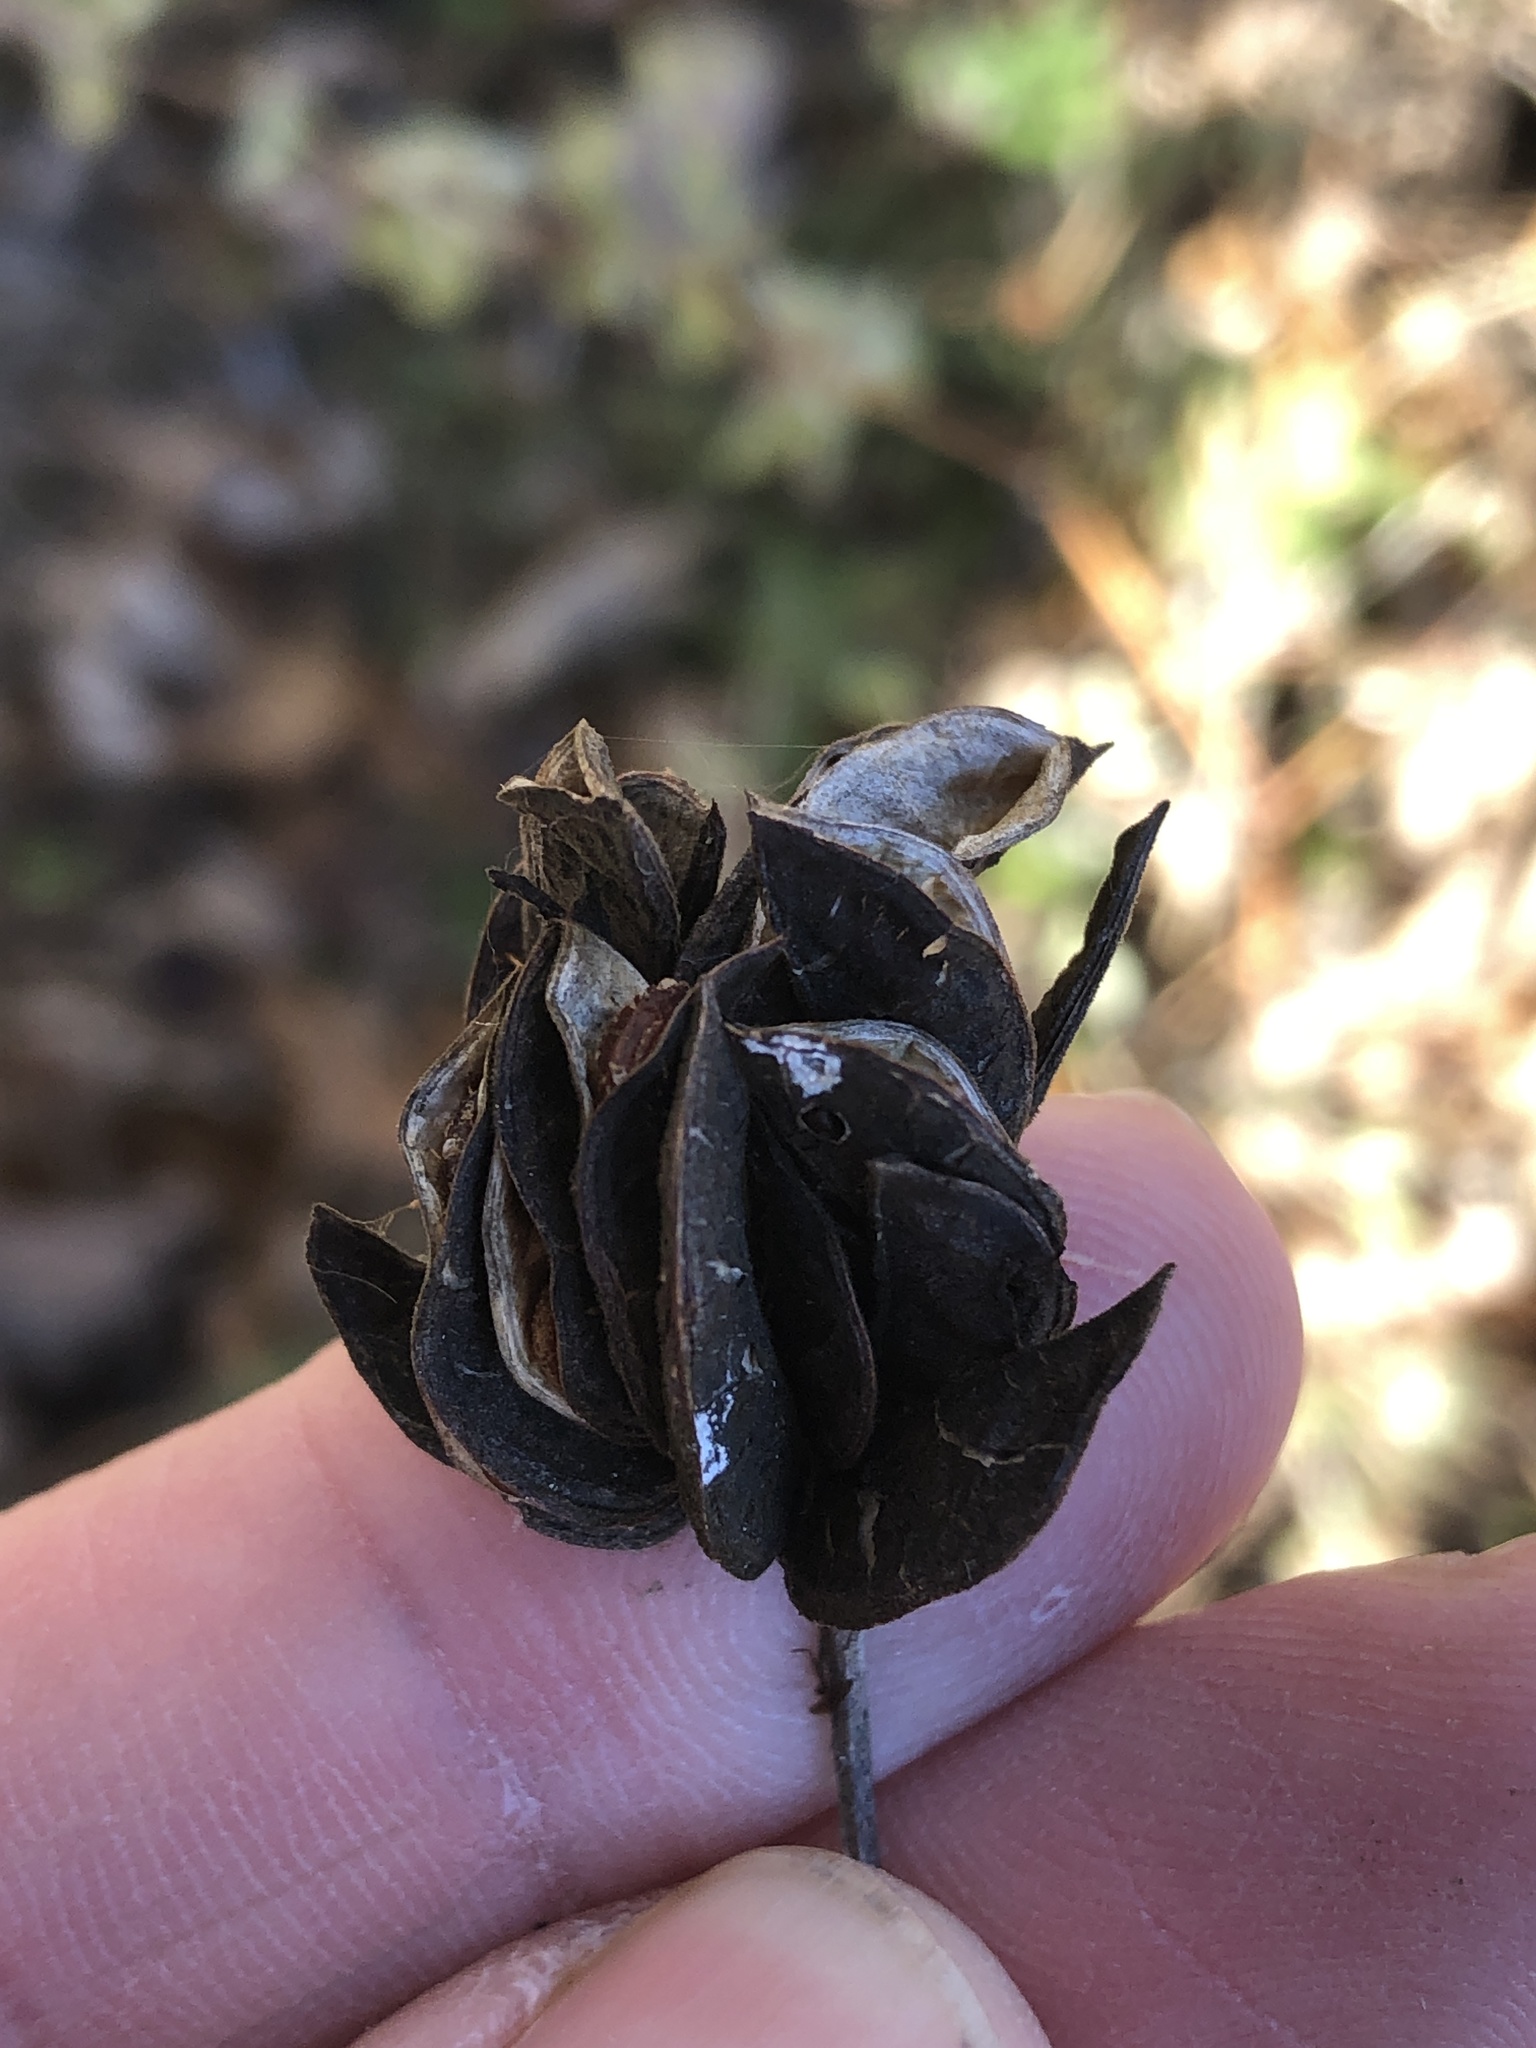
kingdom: Plantae
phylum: Tracheophyta
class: Magnoliopsida
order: Fabales
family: Fabaceae
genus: Desmanthus
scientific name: Desmanthus illinoensis
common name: Illinois bundle-flower
